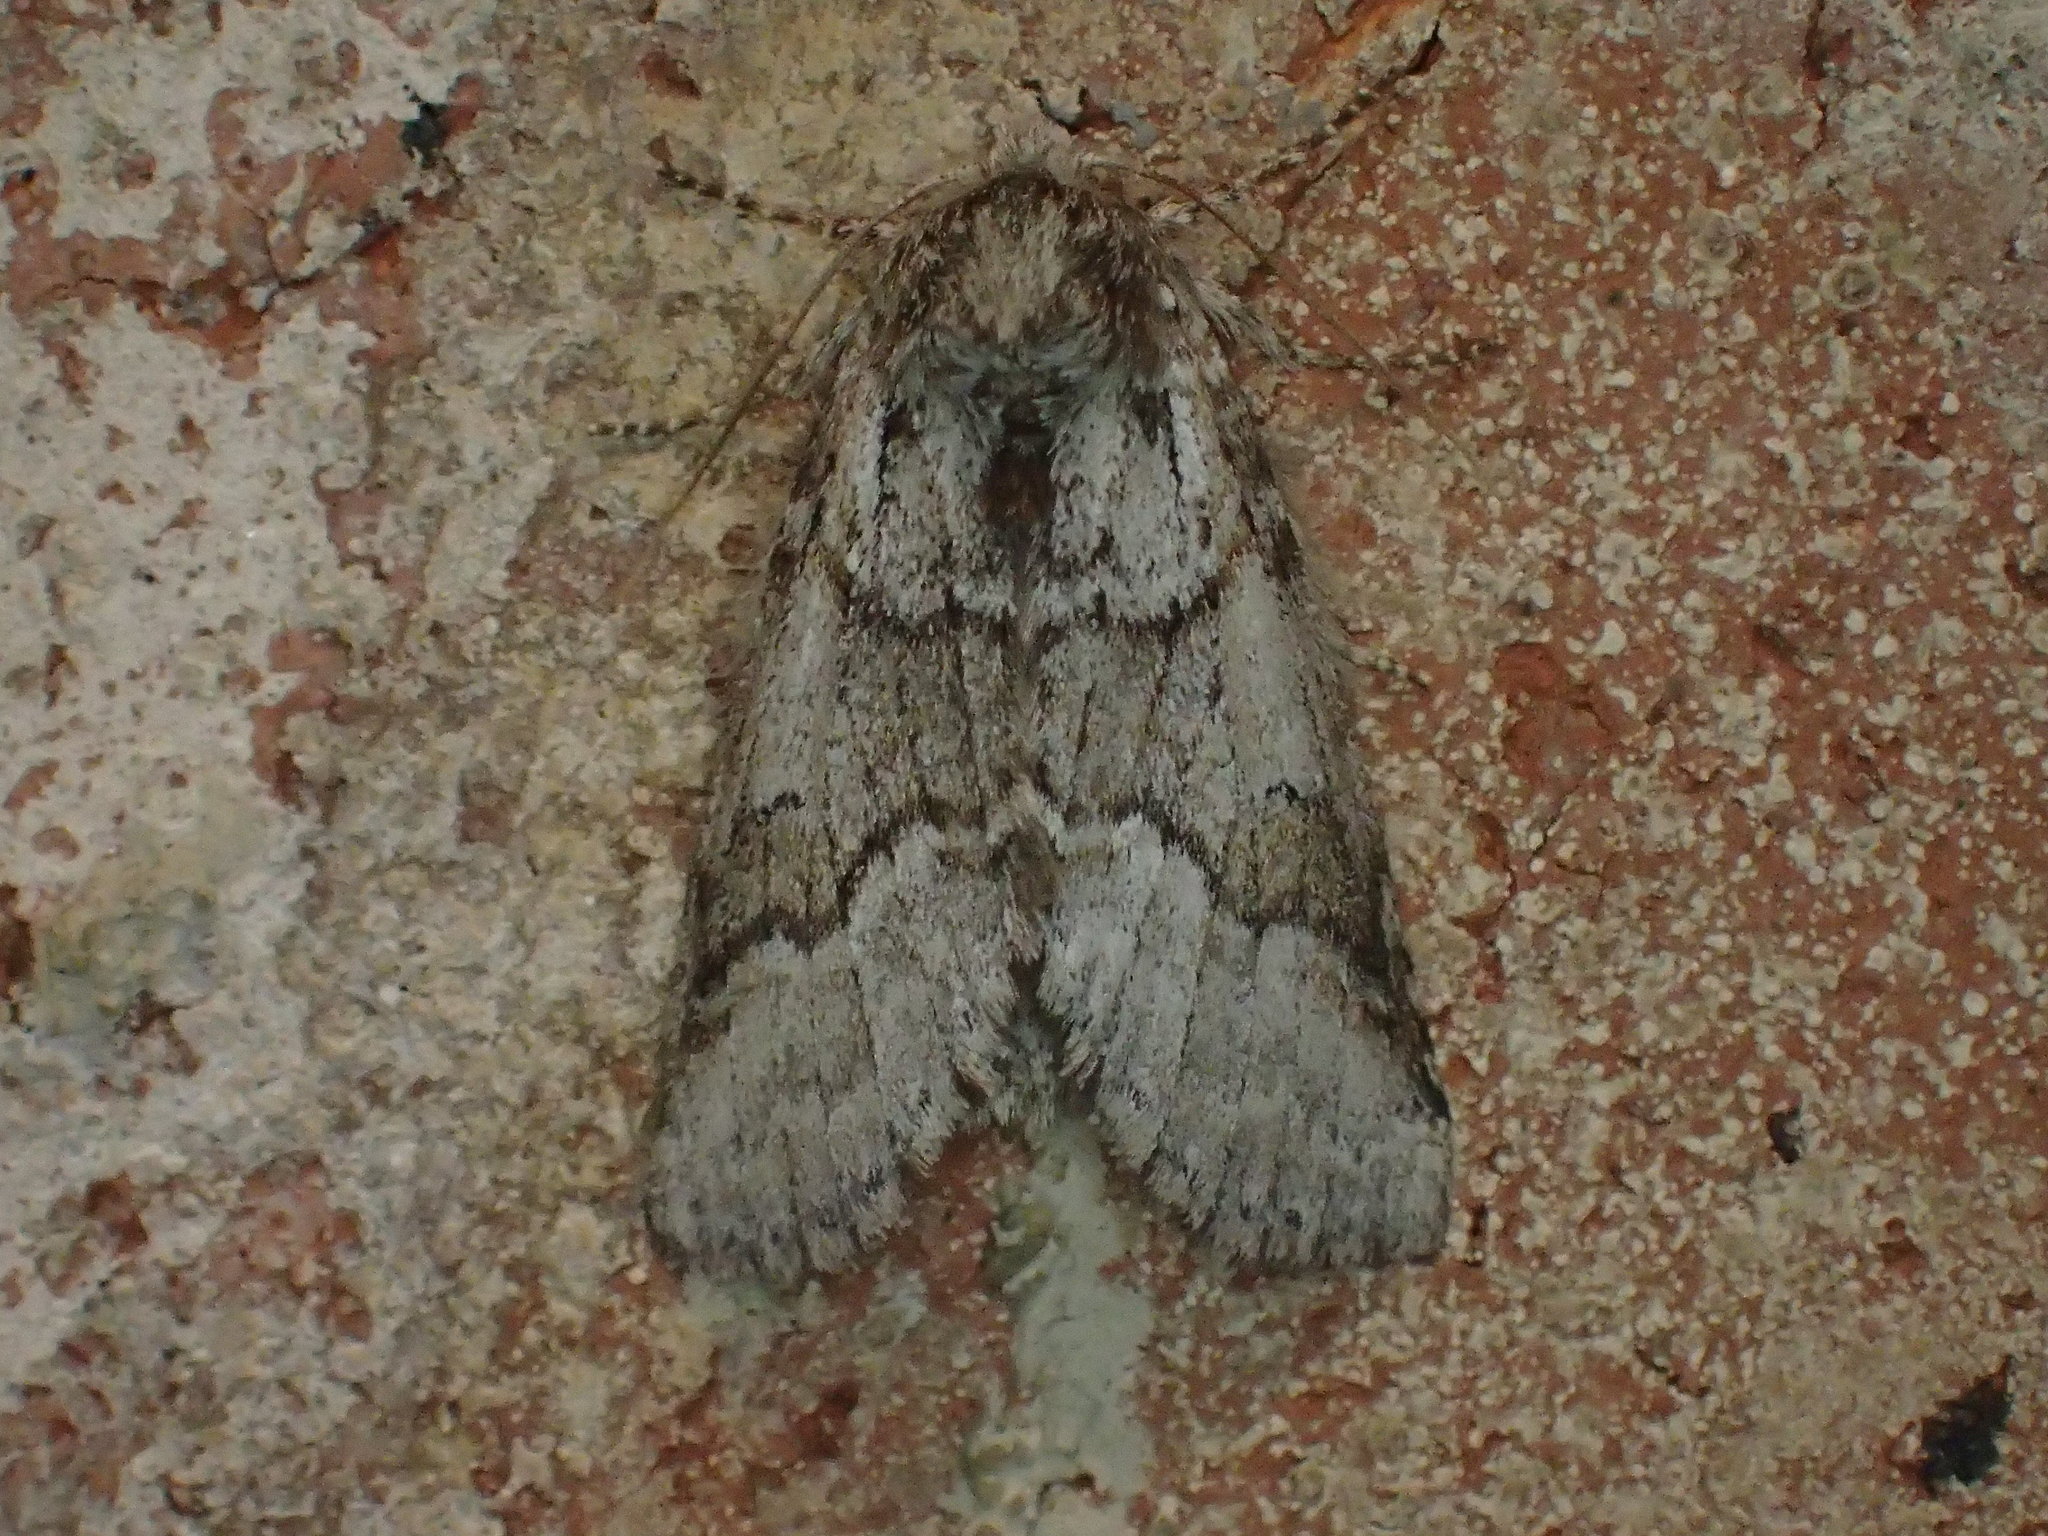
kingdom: Animalia
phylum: Arthropoda
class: Insecta
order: Lepidoptera
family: Notodontidae
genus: Lochmaeus
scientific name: Lochmaeus bilineata
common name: Double-lined prominent
